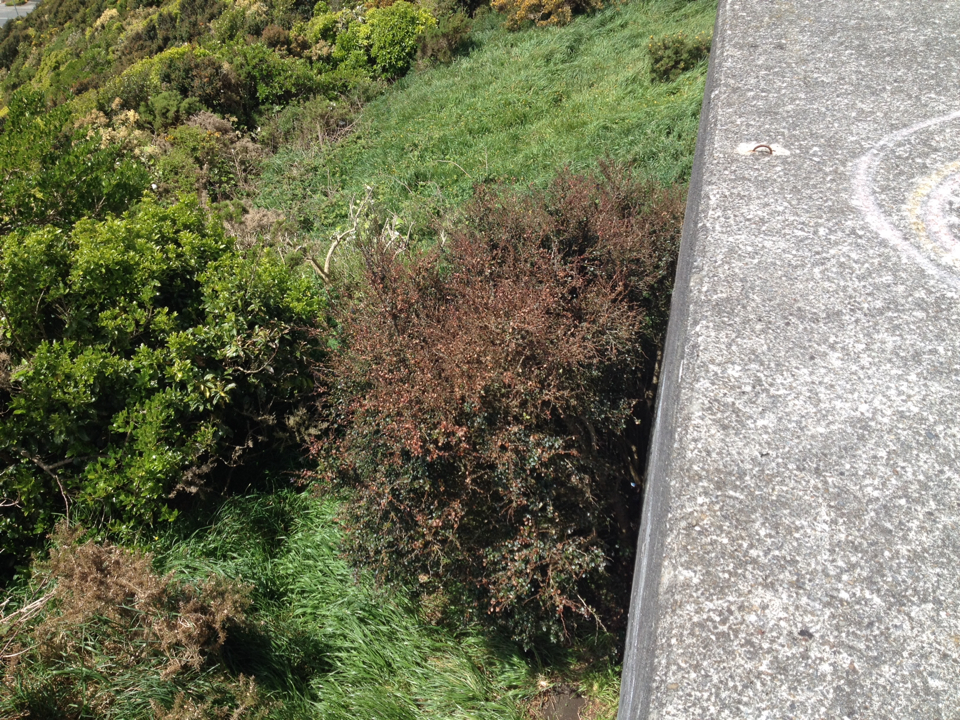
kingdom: Plantae
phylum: Tracheophyta
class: Magnoliopsida
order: Ranunculales
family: Berberidaceae
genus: Berberis
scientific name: Berberis darwinii
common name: Darwin's barberry
